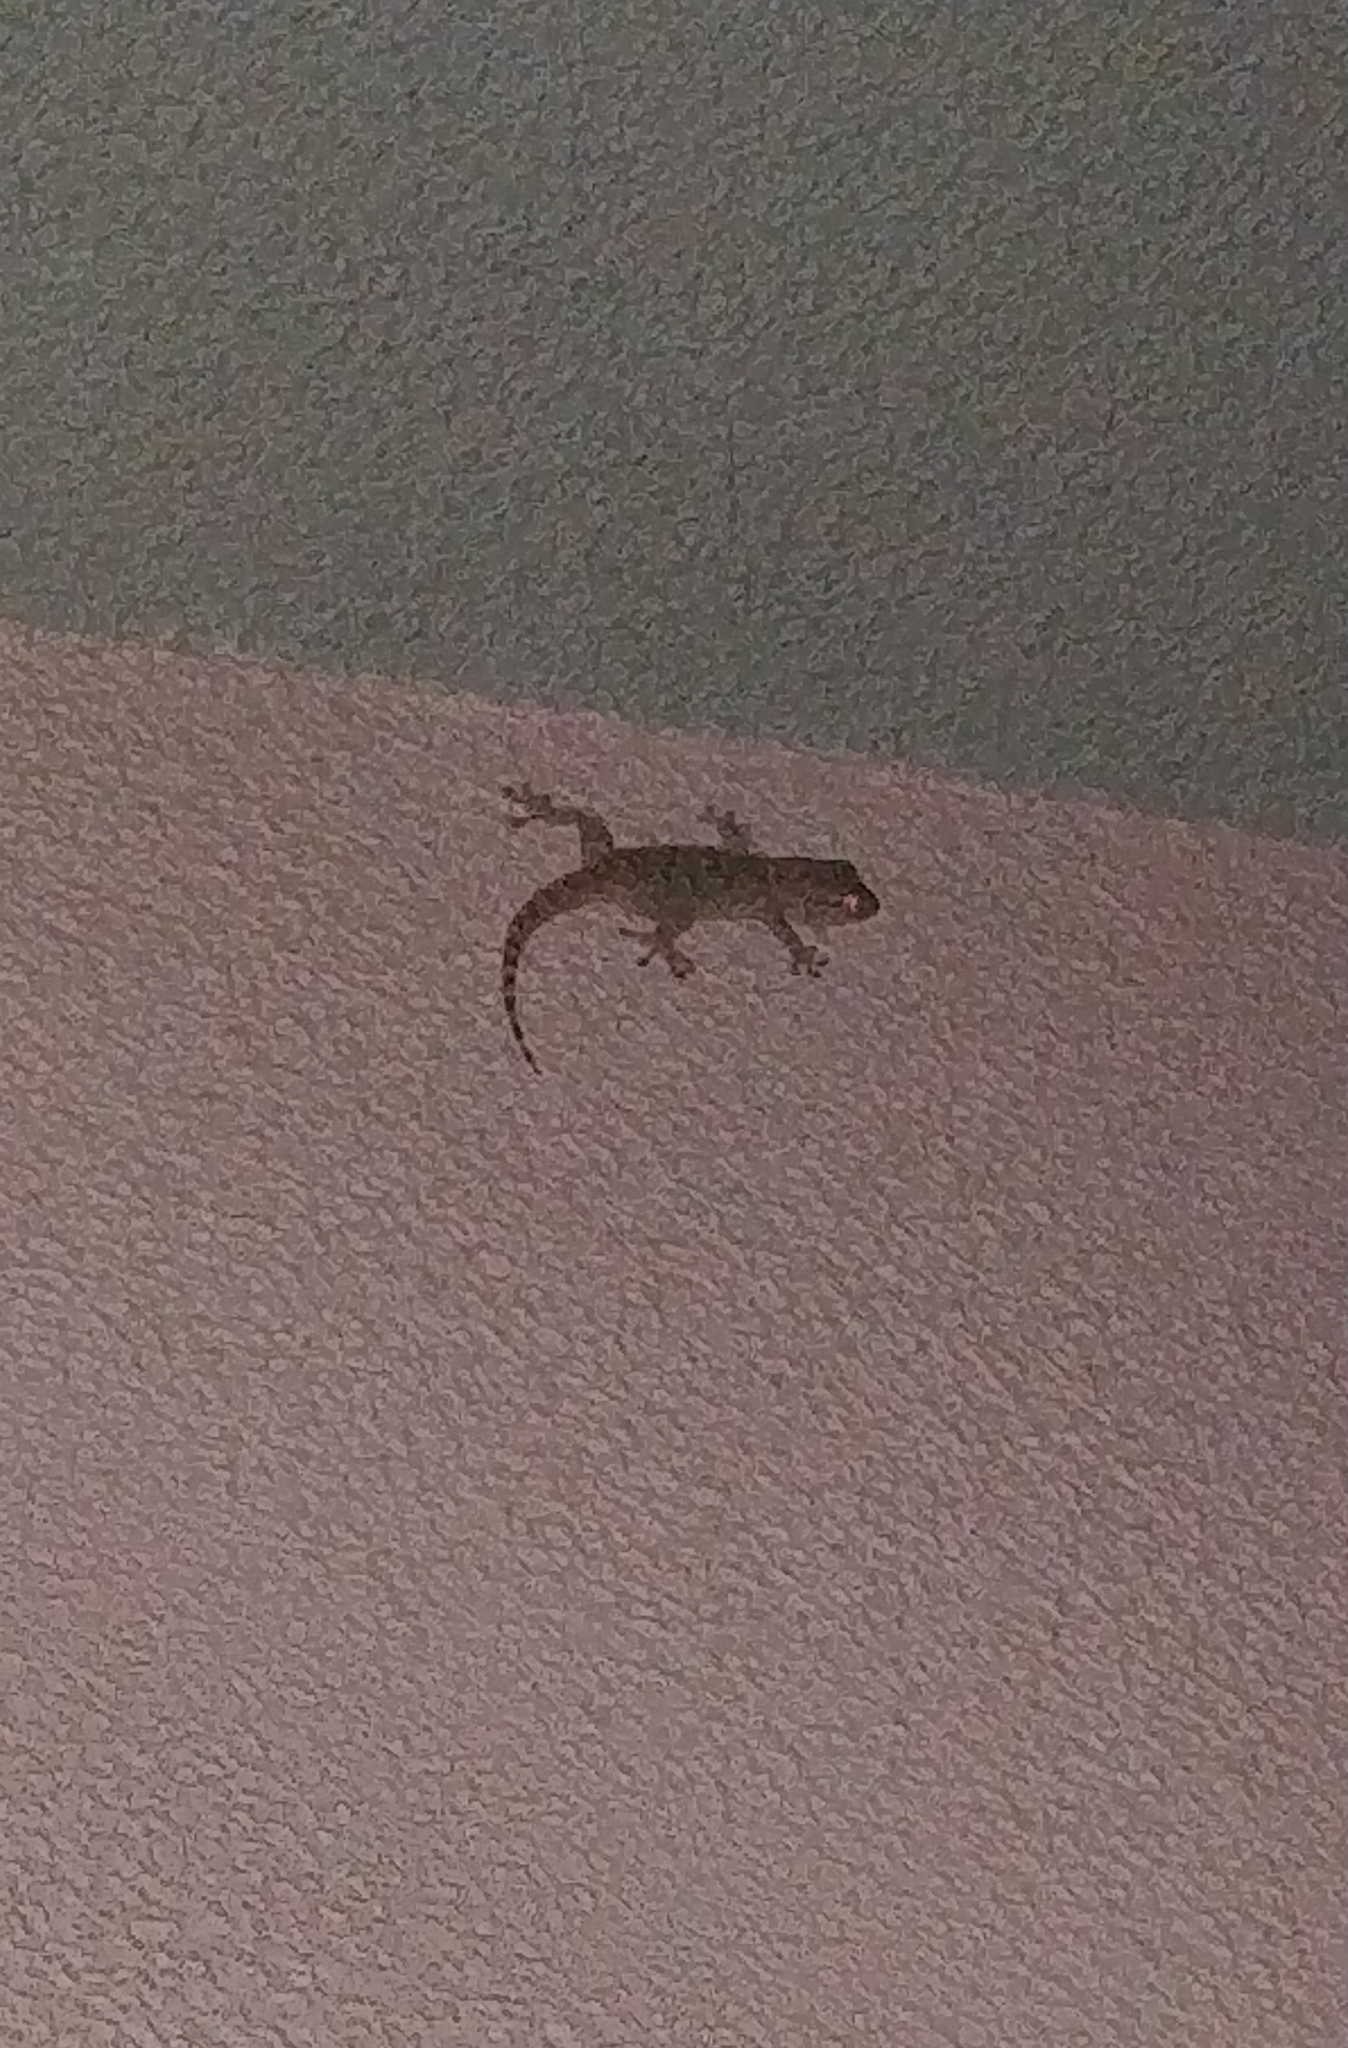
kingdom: Animalia
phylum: Chordata
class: Squamata
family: Phyllodactylidae
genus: Tarentola
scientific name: Tarentola mauritanica
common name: Moorish gecko
